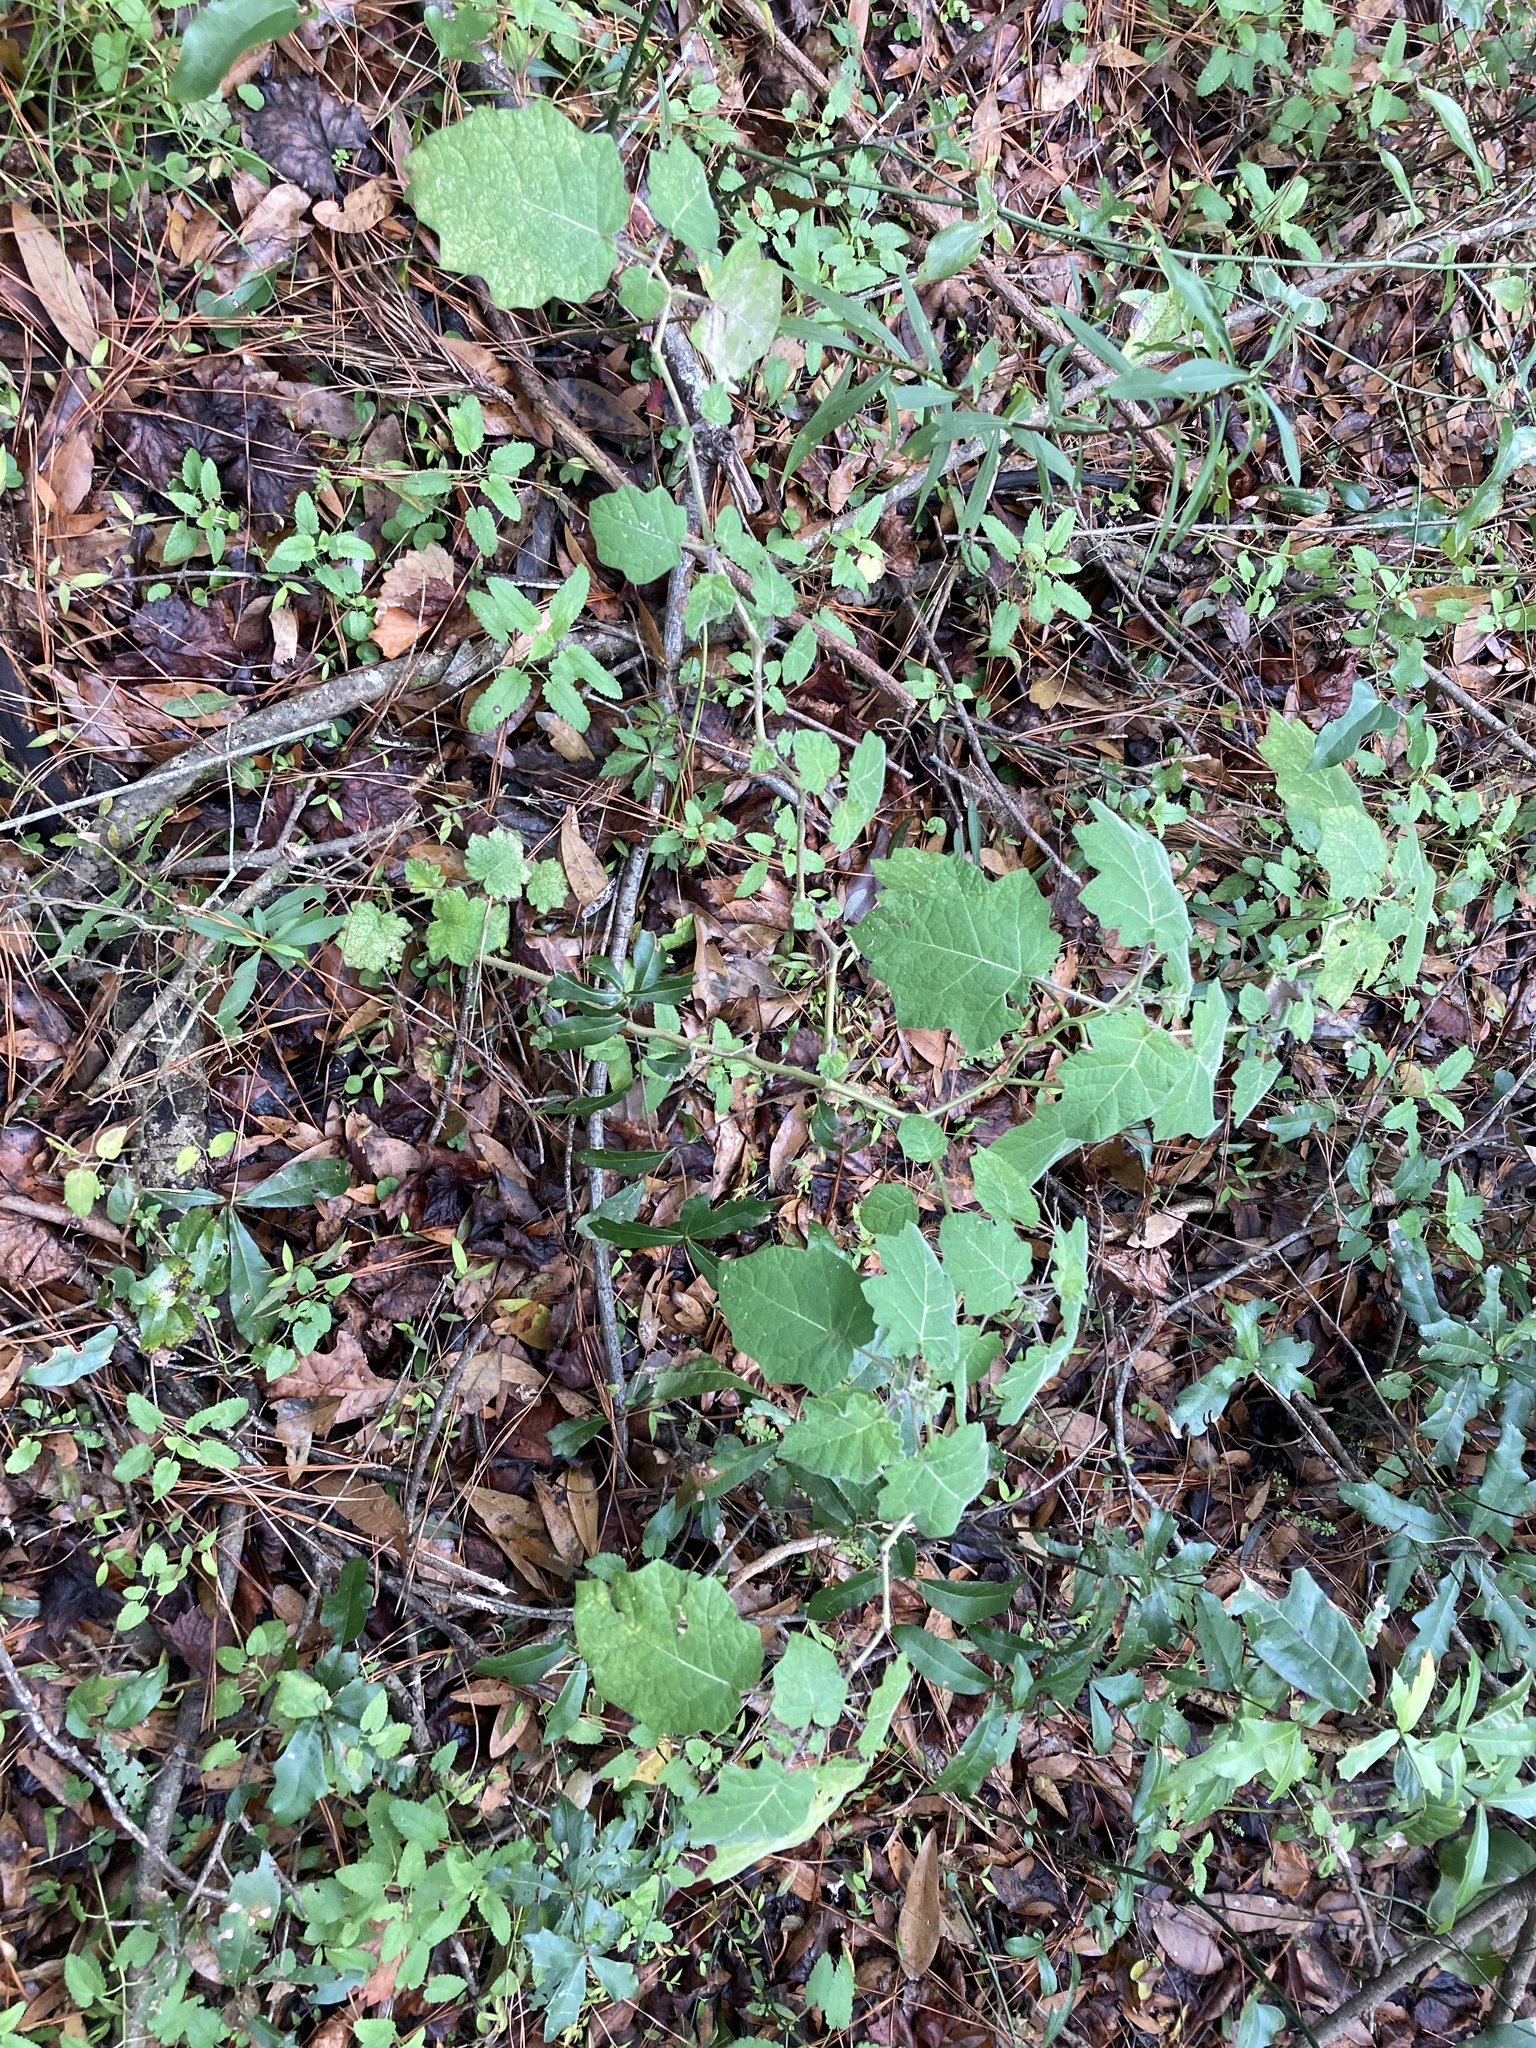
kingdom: Plantae
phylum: Tracheophyta
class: Magnoliopsida
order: Solanales
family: Solanaceae
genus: Solanum
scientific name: Solanum viarum
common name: Tropical soda apple
